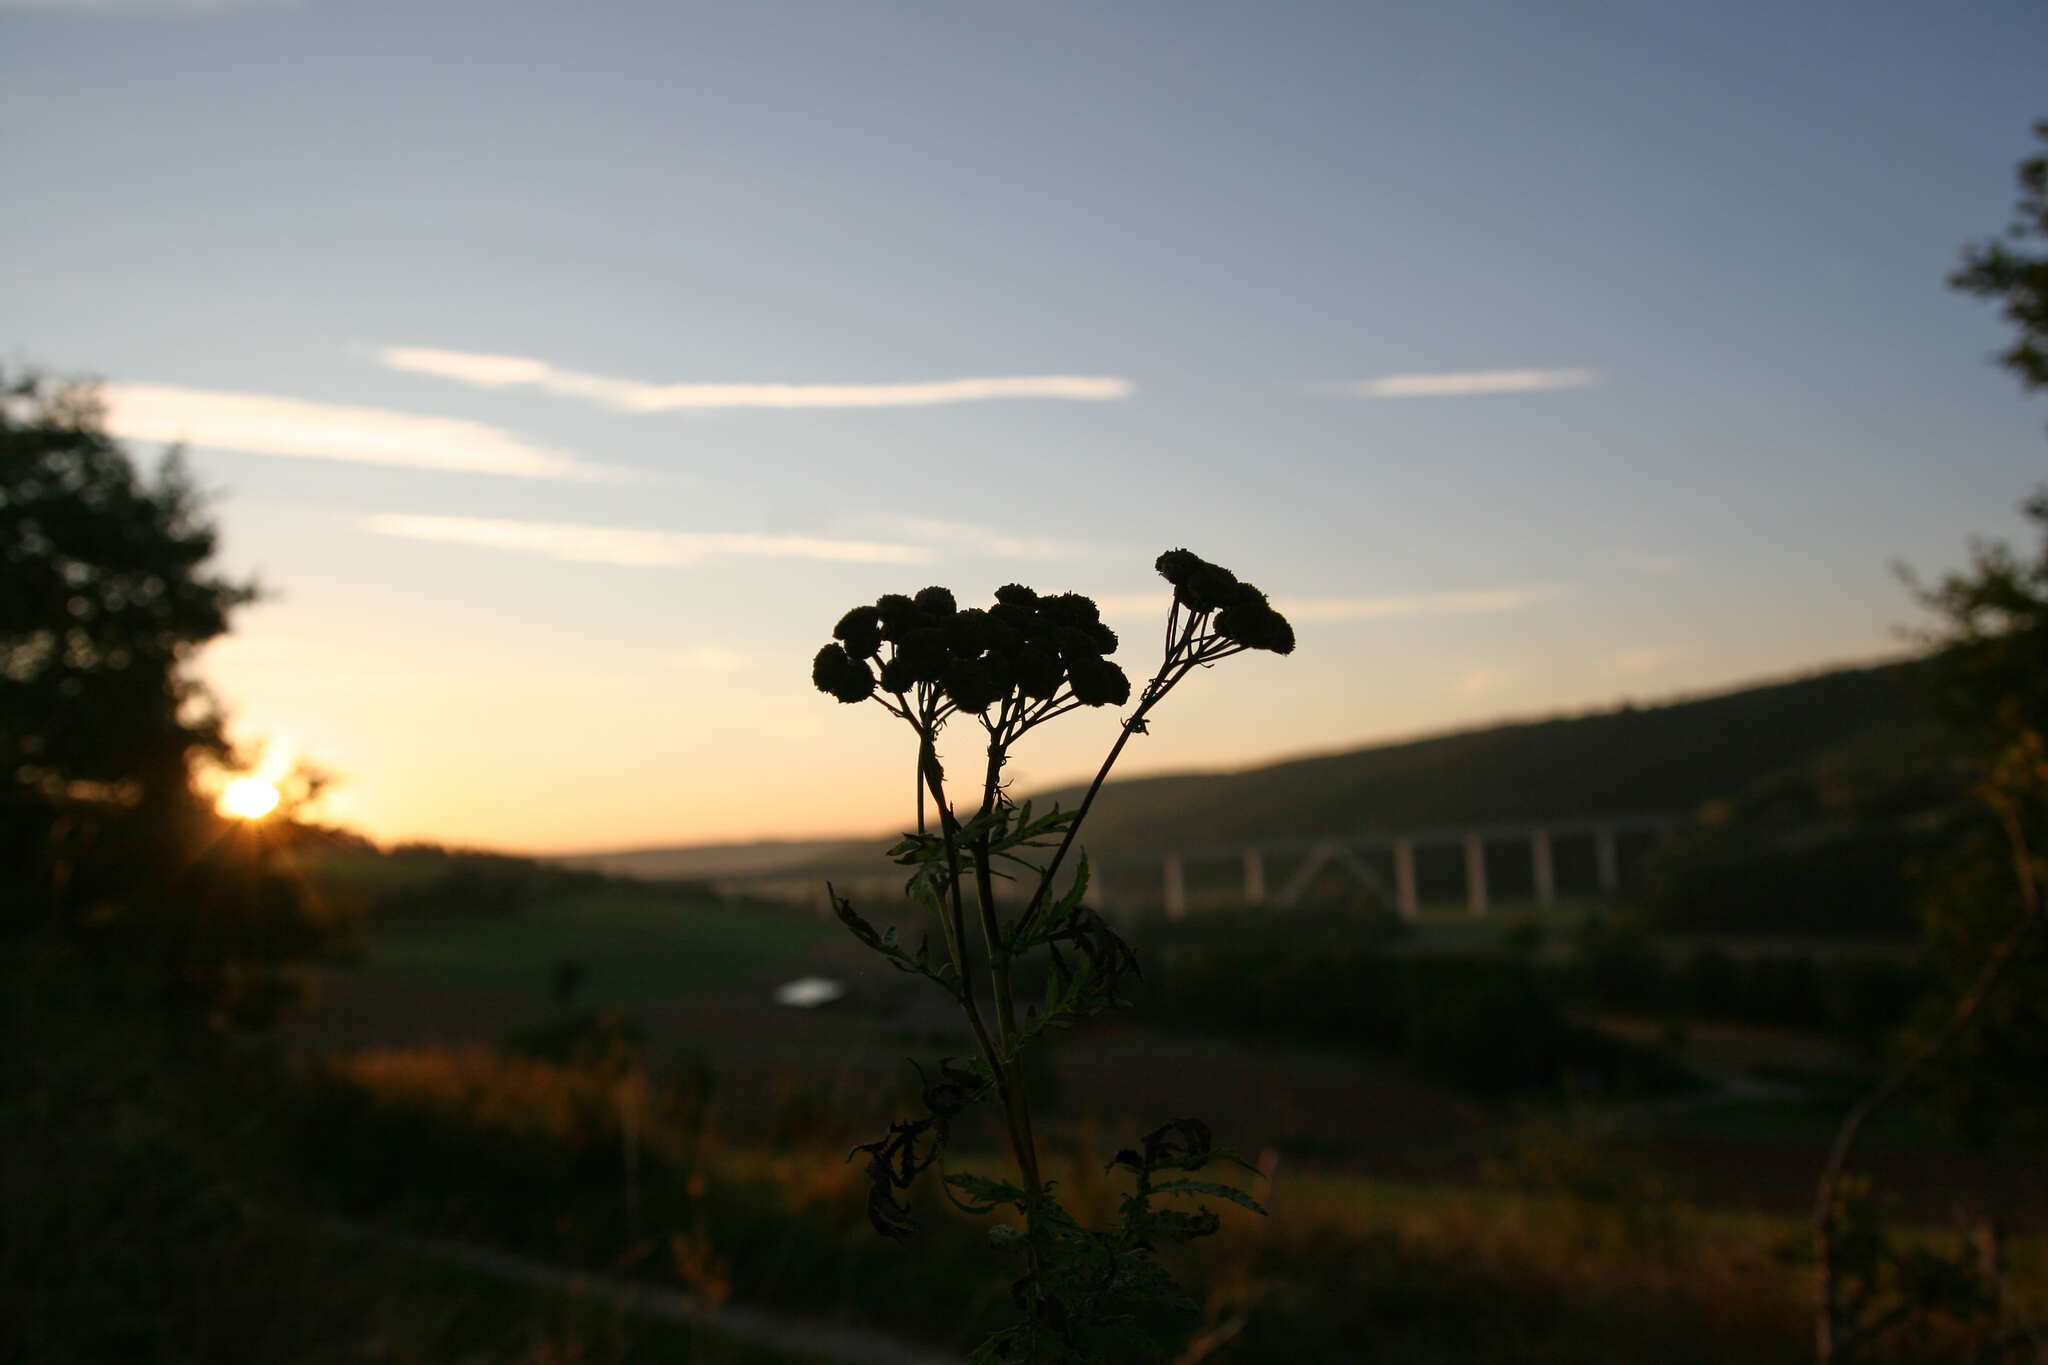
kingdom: Plantae
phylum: Tracheophyta
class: Magnoliopsida
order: Asterales
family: Asteraceae
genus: Tanacetum
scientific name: Tanacetum vulgare
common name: Common tansy
